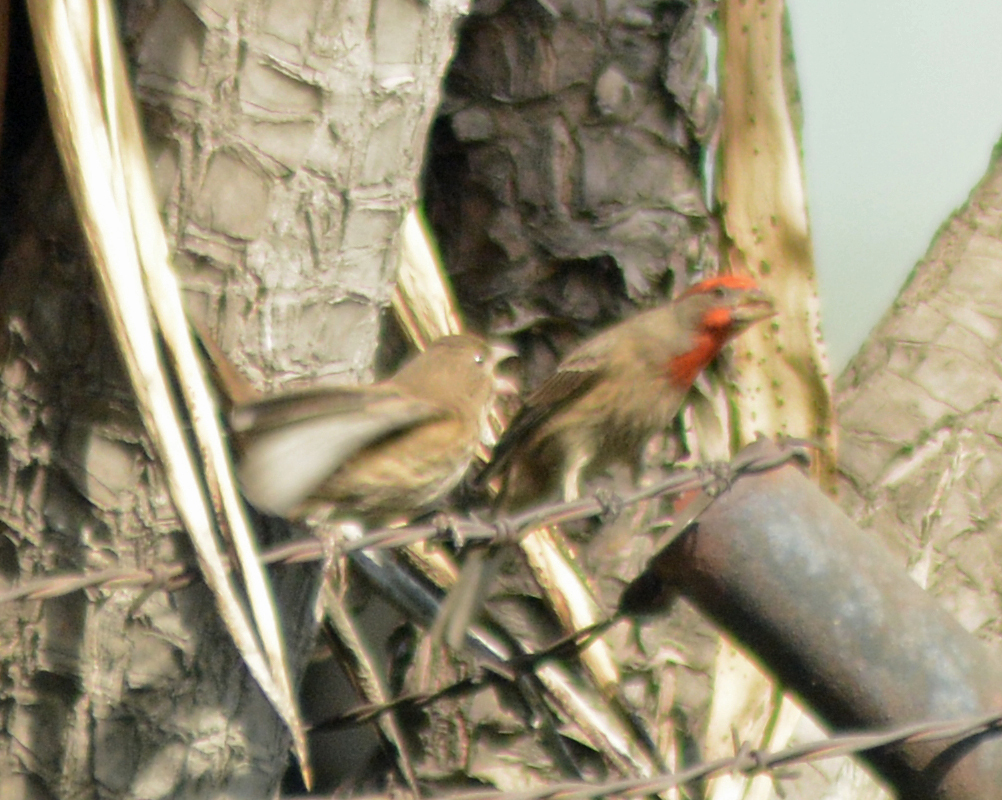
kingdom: Animalia
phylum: Chordata
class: Aves
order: Passeriformes
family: Fringillidae
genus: Haemorhous
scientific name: Haemorhous mexicanus
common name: House finch
